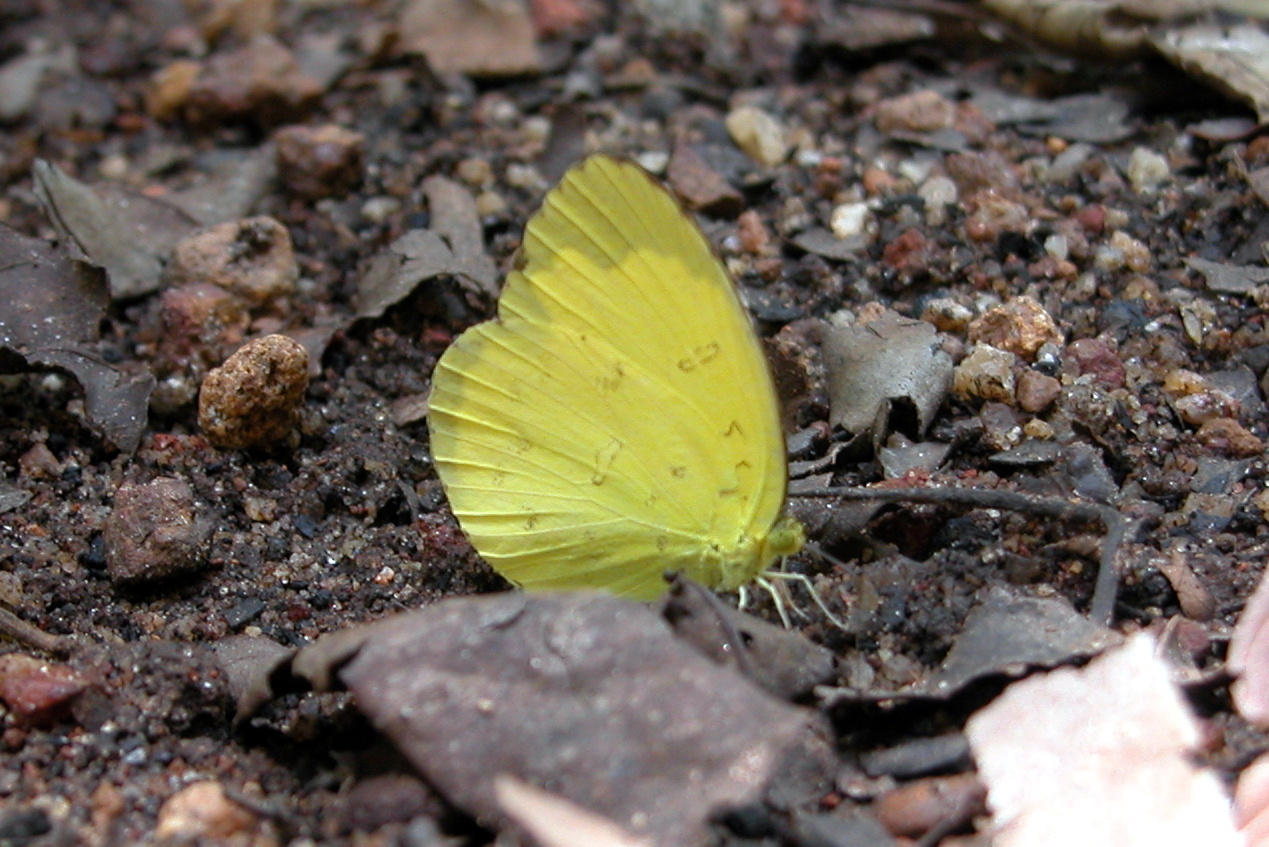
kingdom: Animalia
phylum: Arthropoda
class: Insecta
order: Lepidoptera
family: Pieridae
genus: Eurema
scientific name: Eurema blanda
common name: Three-spot grass yellow
